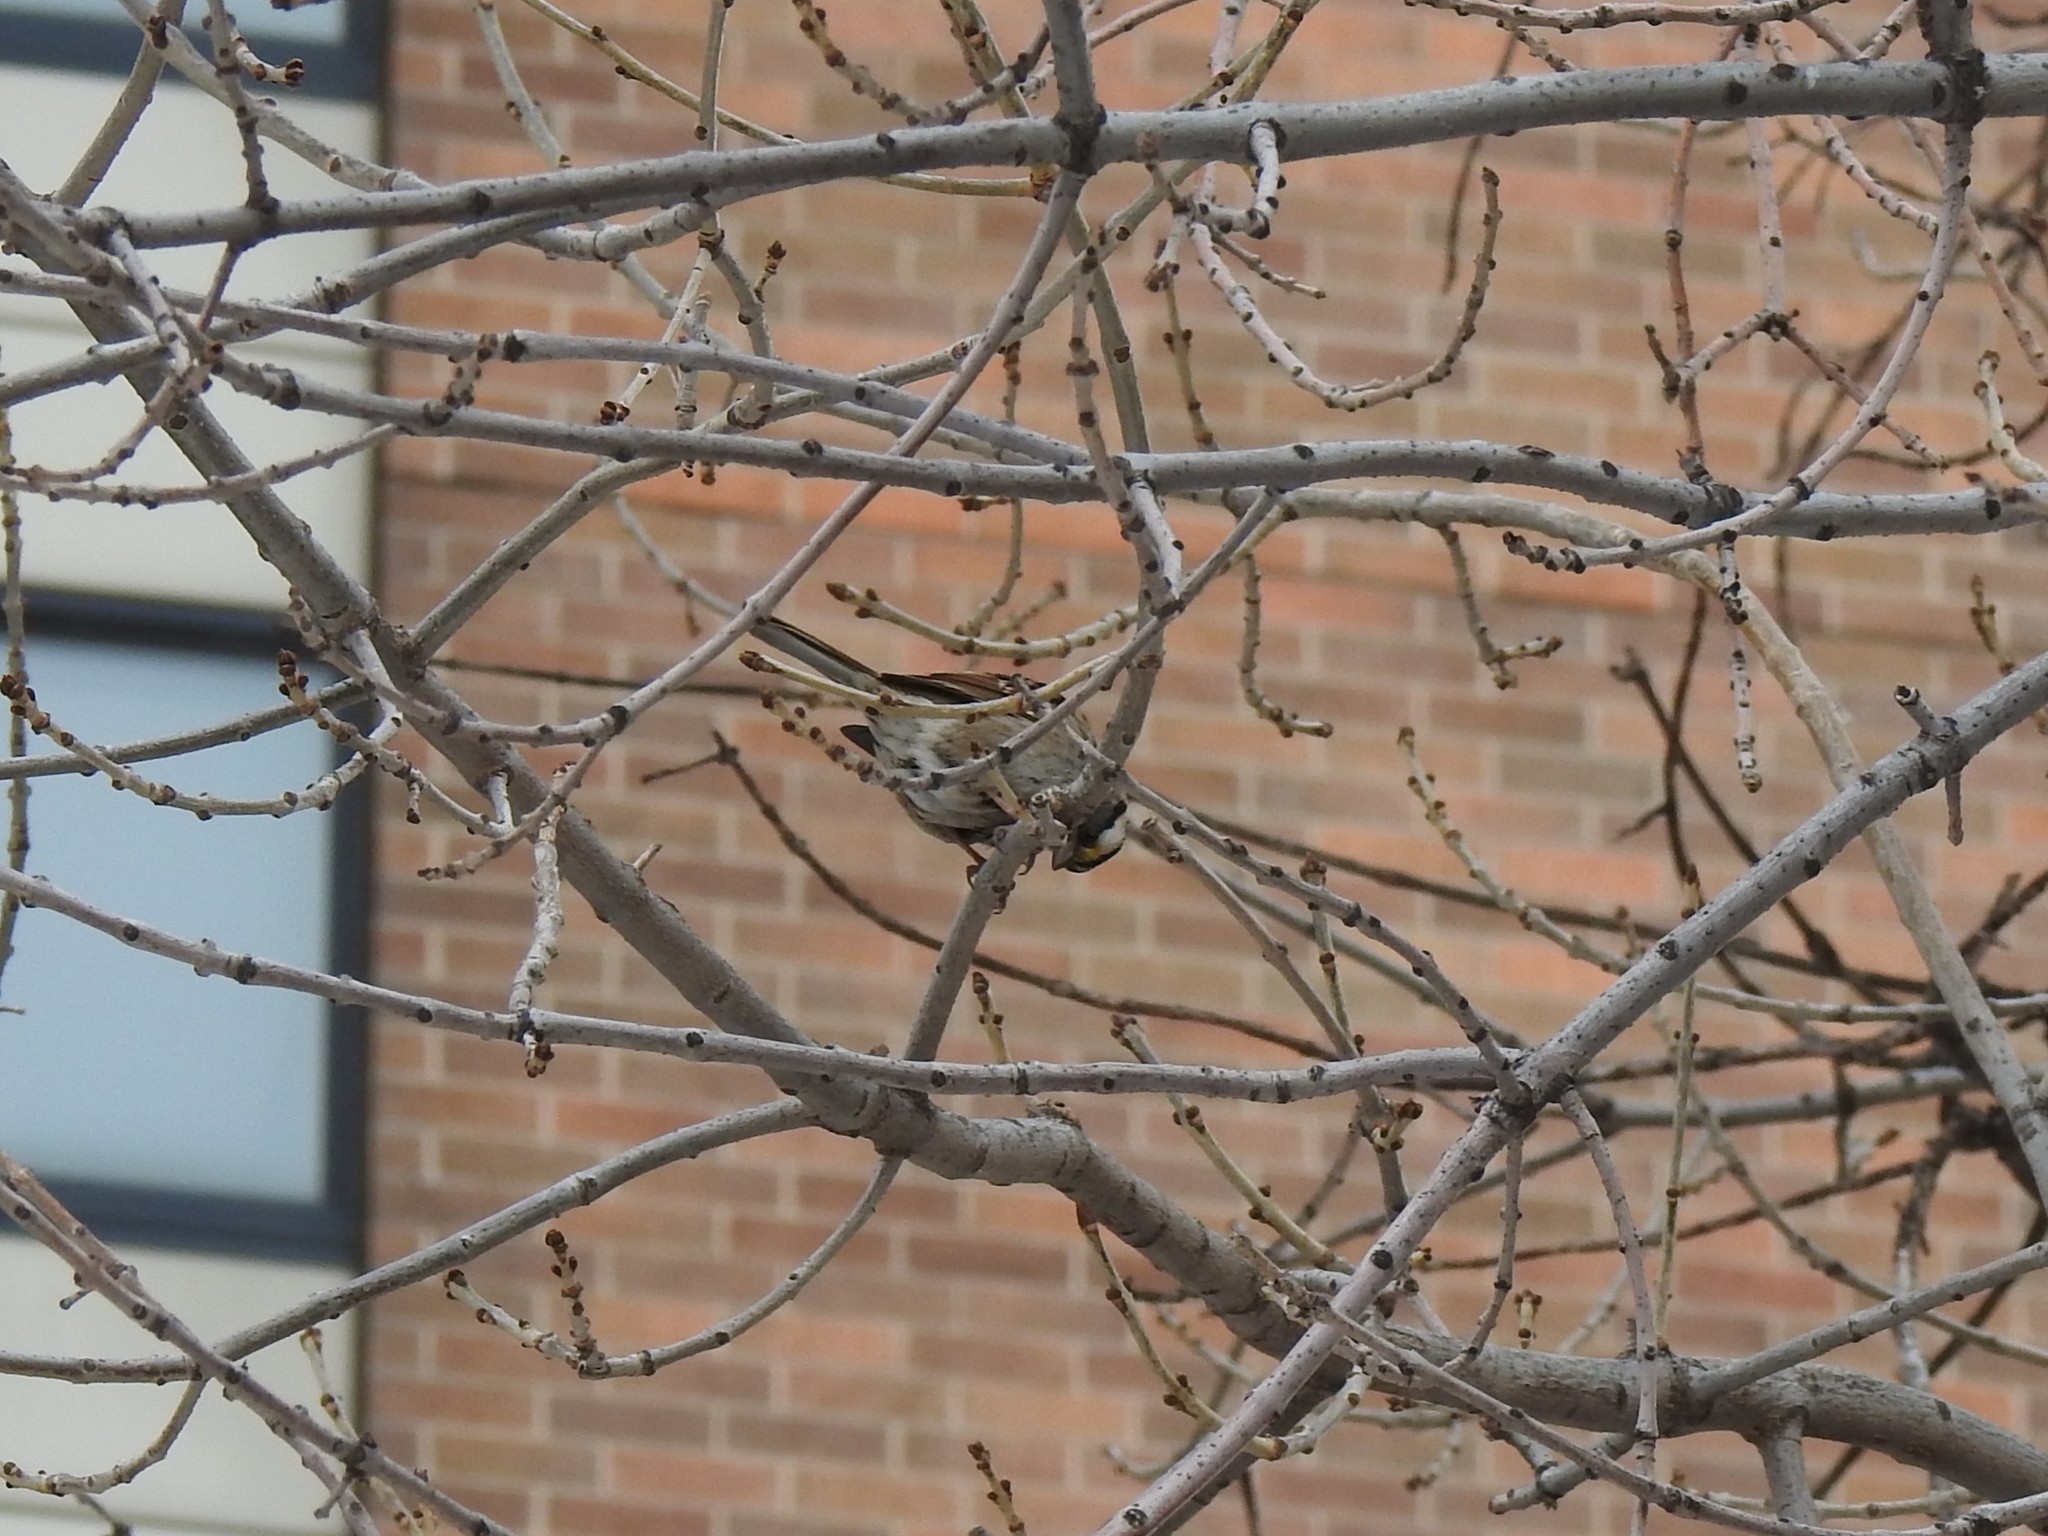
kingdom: Animalia
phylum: Chordata
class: Aves
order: Passeriformes
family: Passerellidae
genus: Zonotrichia
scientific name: Zonotrichia albicollis
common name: White-throated sparrow
